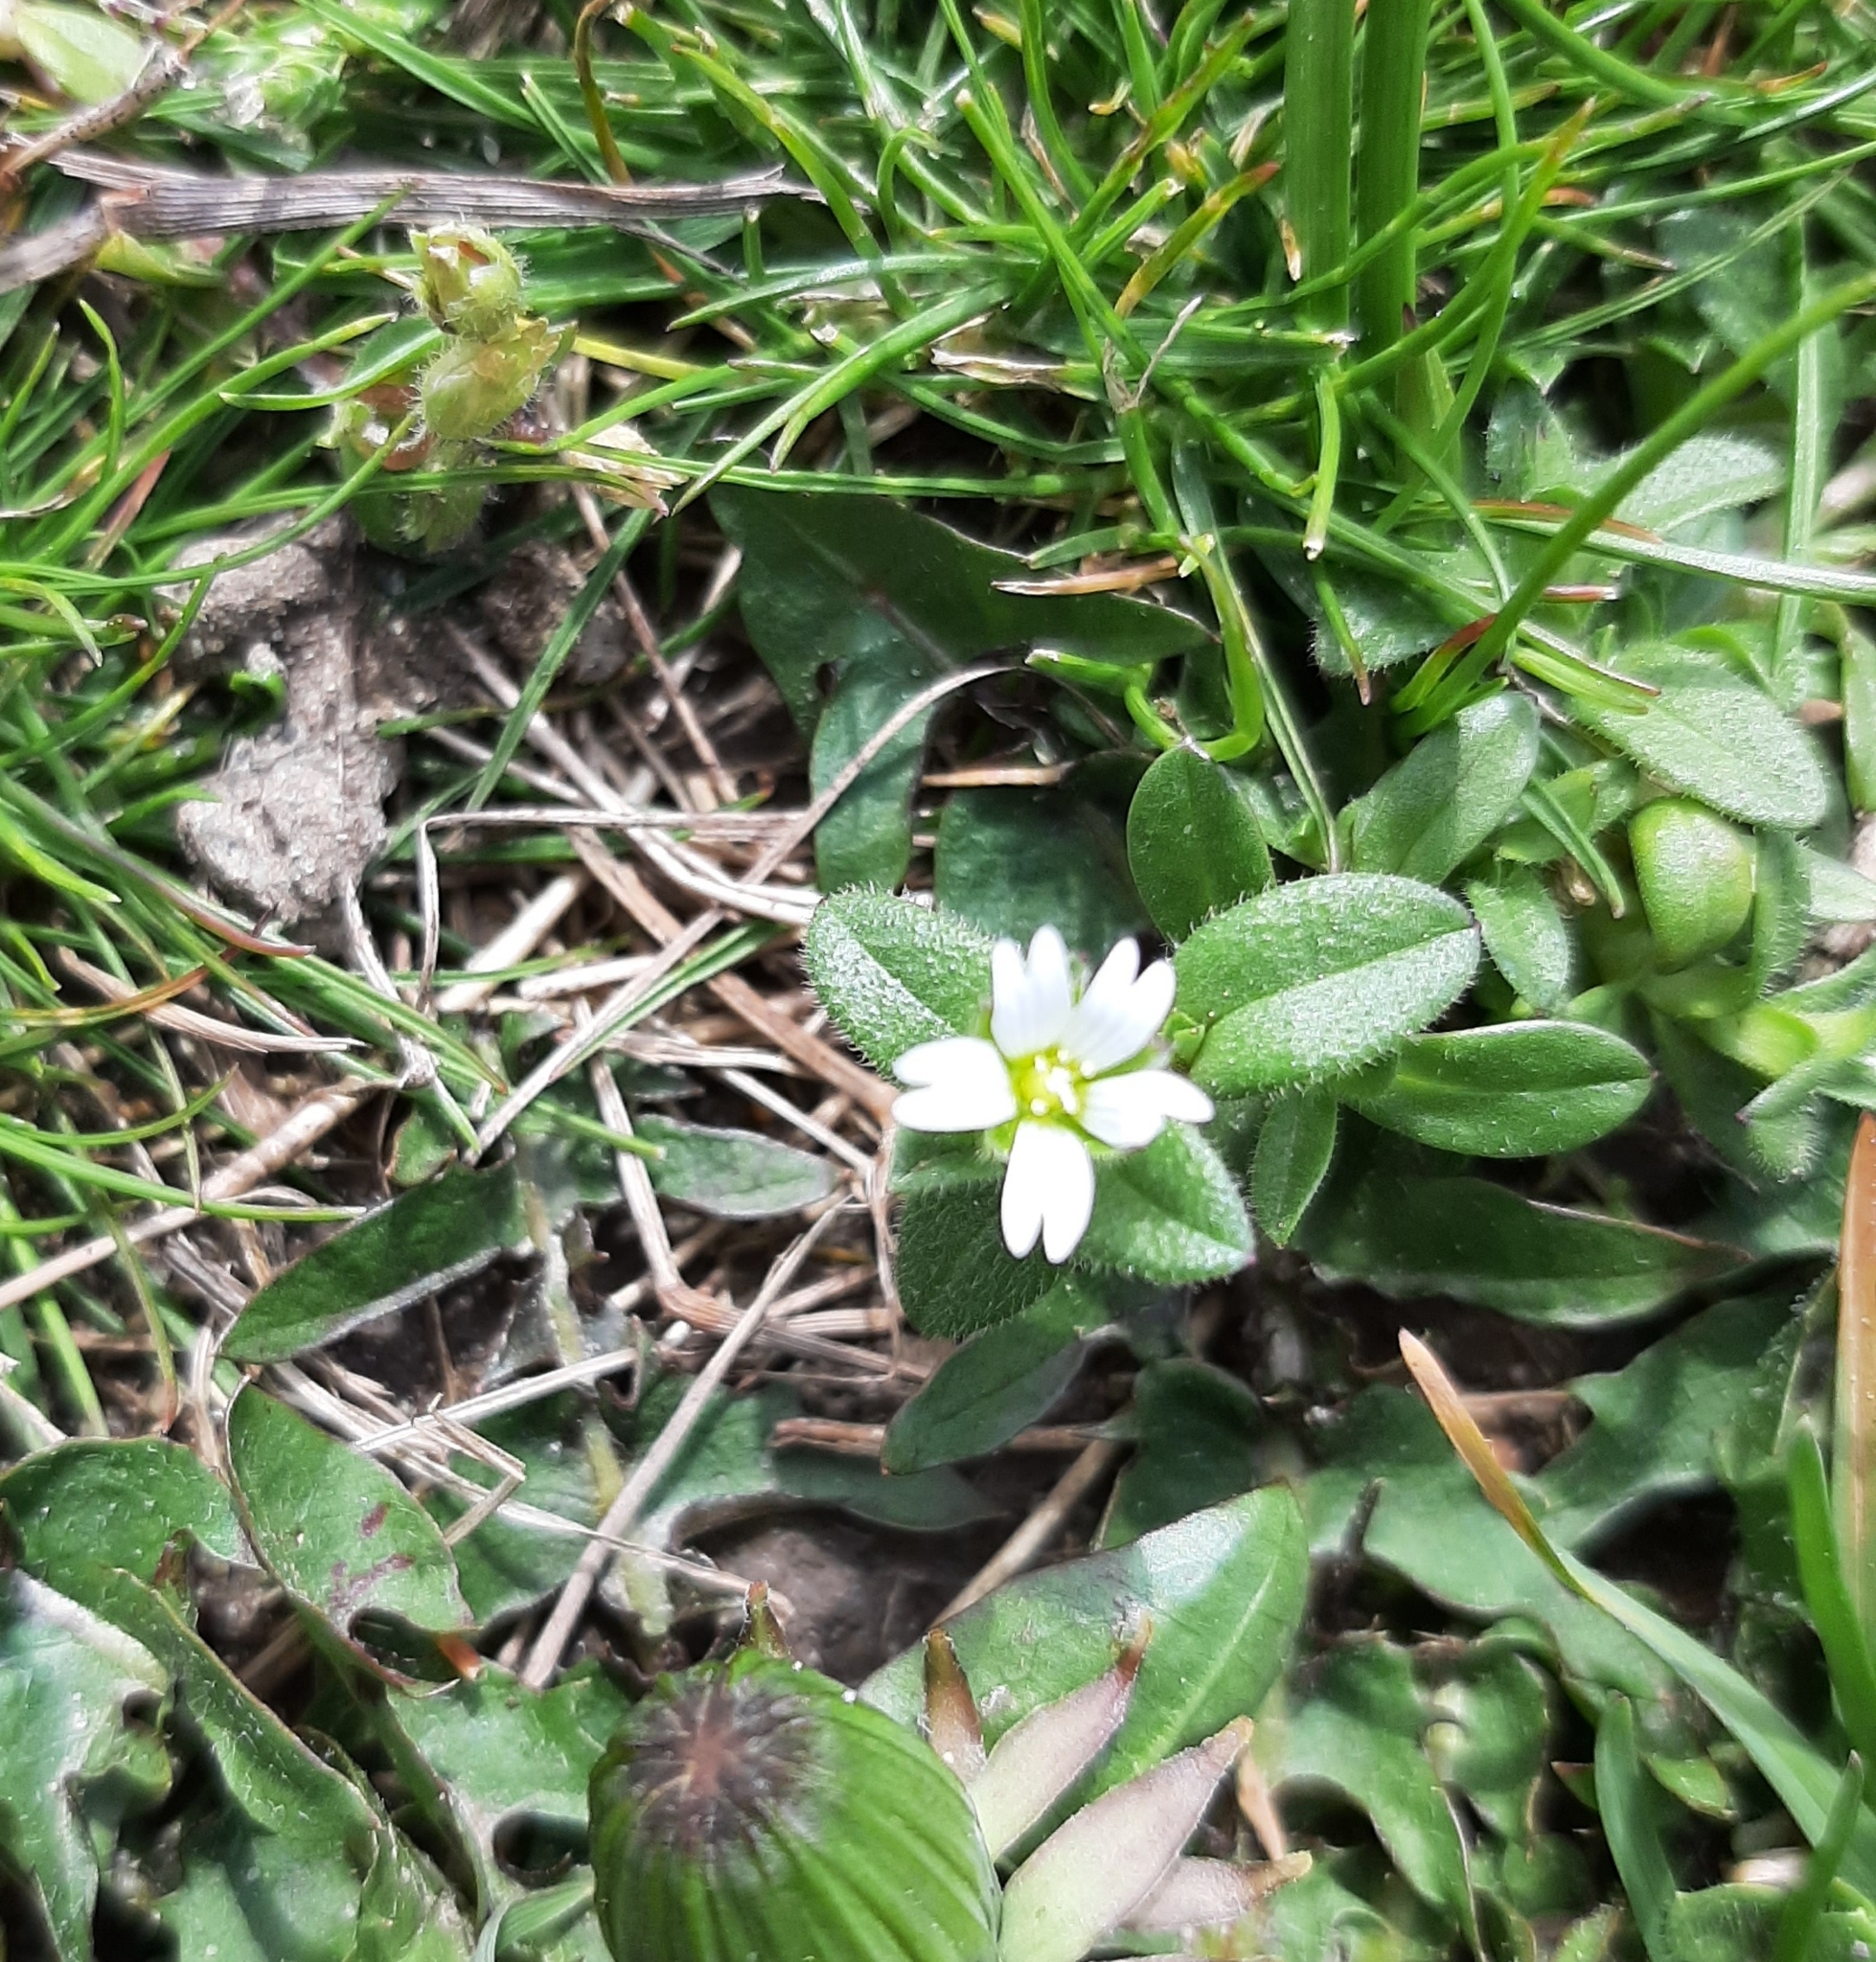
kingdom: Plantae
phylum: Tracheophyta
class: Magnoliopsida
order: Caryophyllales
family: Caryophyllaceae
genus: Cerastium
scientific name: Cerastium holosteoides
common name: Big chickweed
